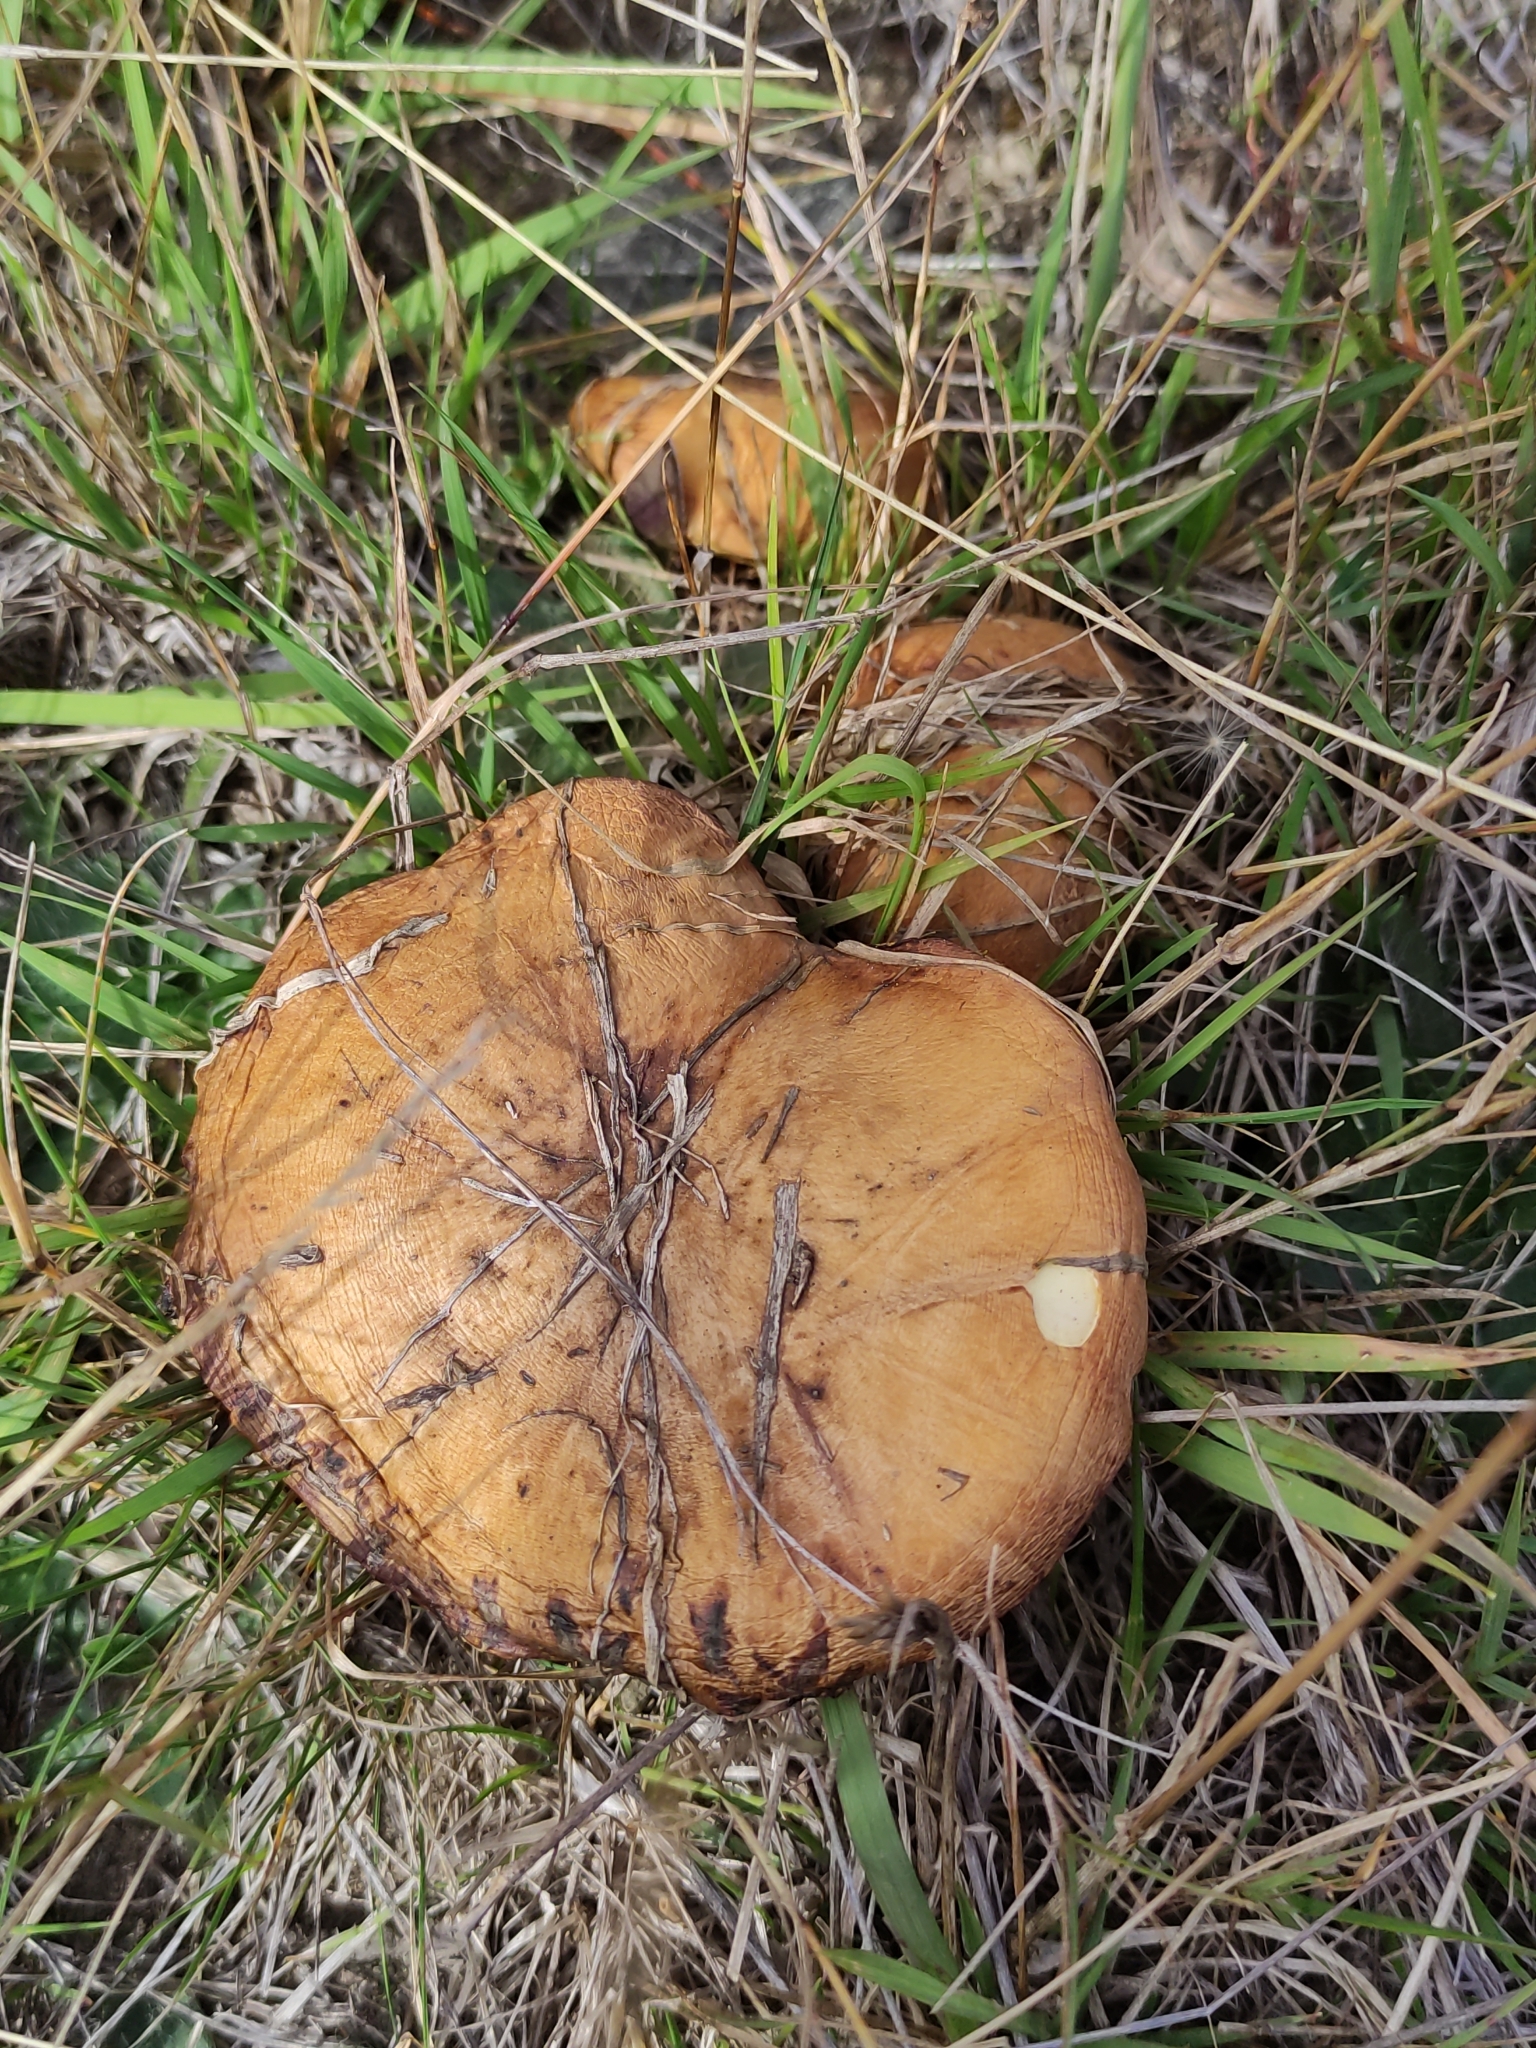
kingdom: Fungi
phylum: Basidiomycota
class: Agaricomycetes
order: Boletales
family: Suillaceae
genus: Suillus
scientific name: Suillus luteus
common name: Slippery jack
